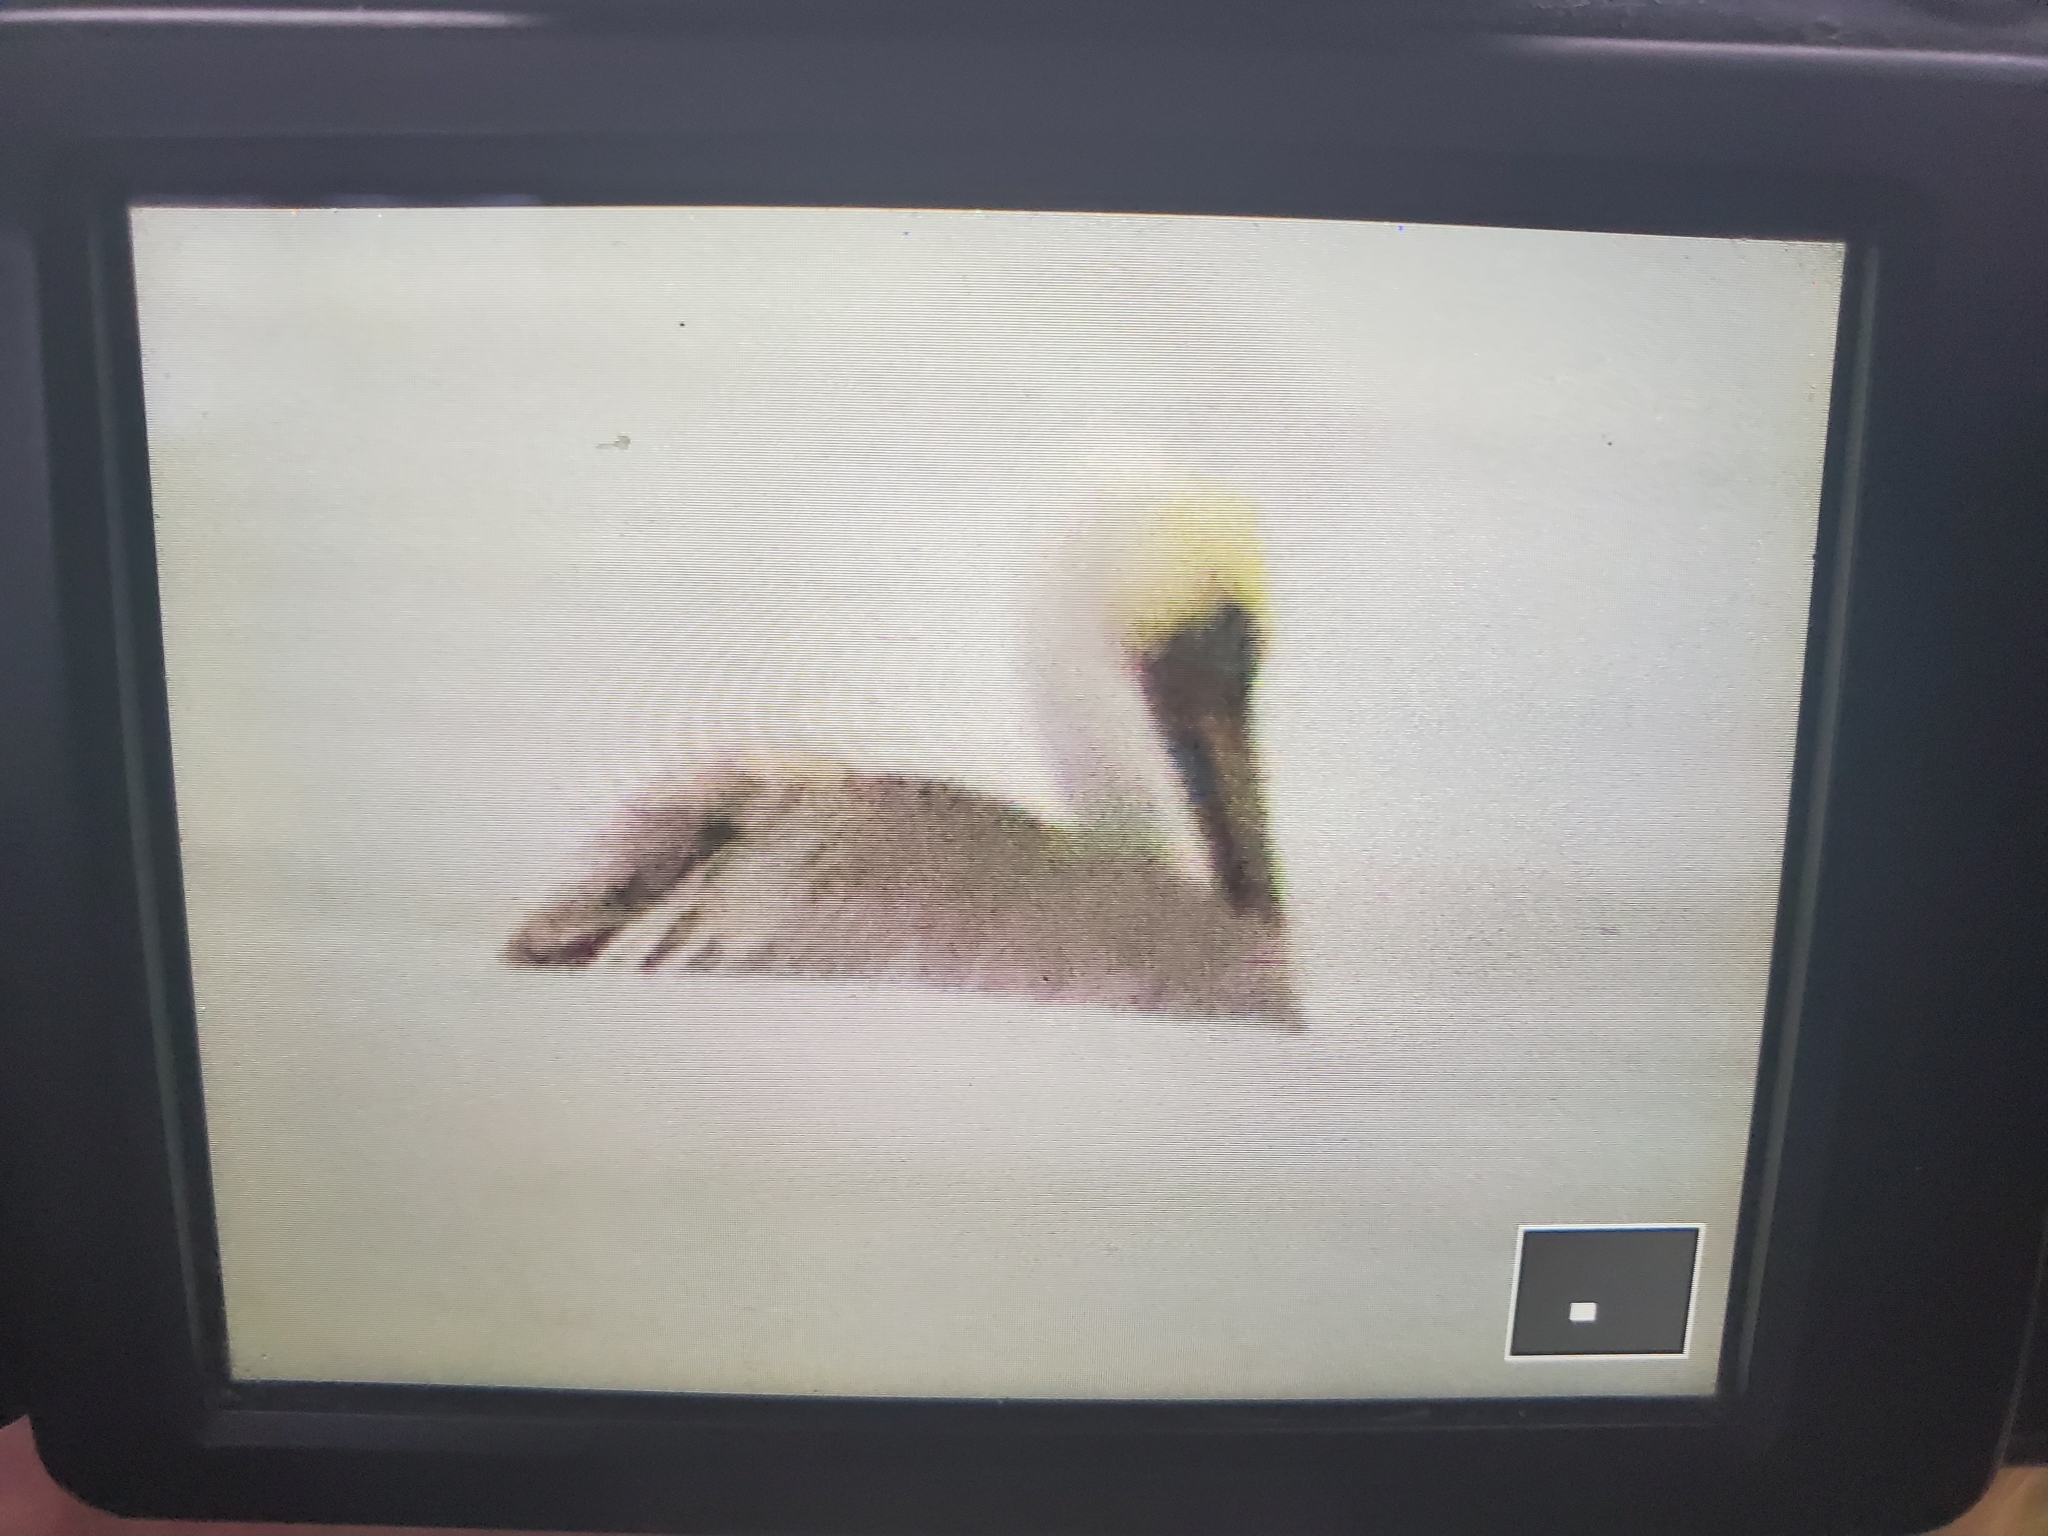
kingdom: Animalia
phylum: Chordata
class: Aves
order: Pelecaniformes
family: Pelecanidae
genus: Pelecanus
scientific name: Pelecanus occidentalis
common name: Brown pelican
